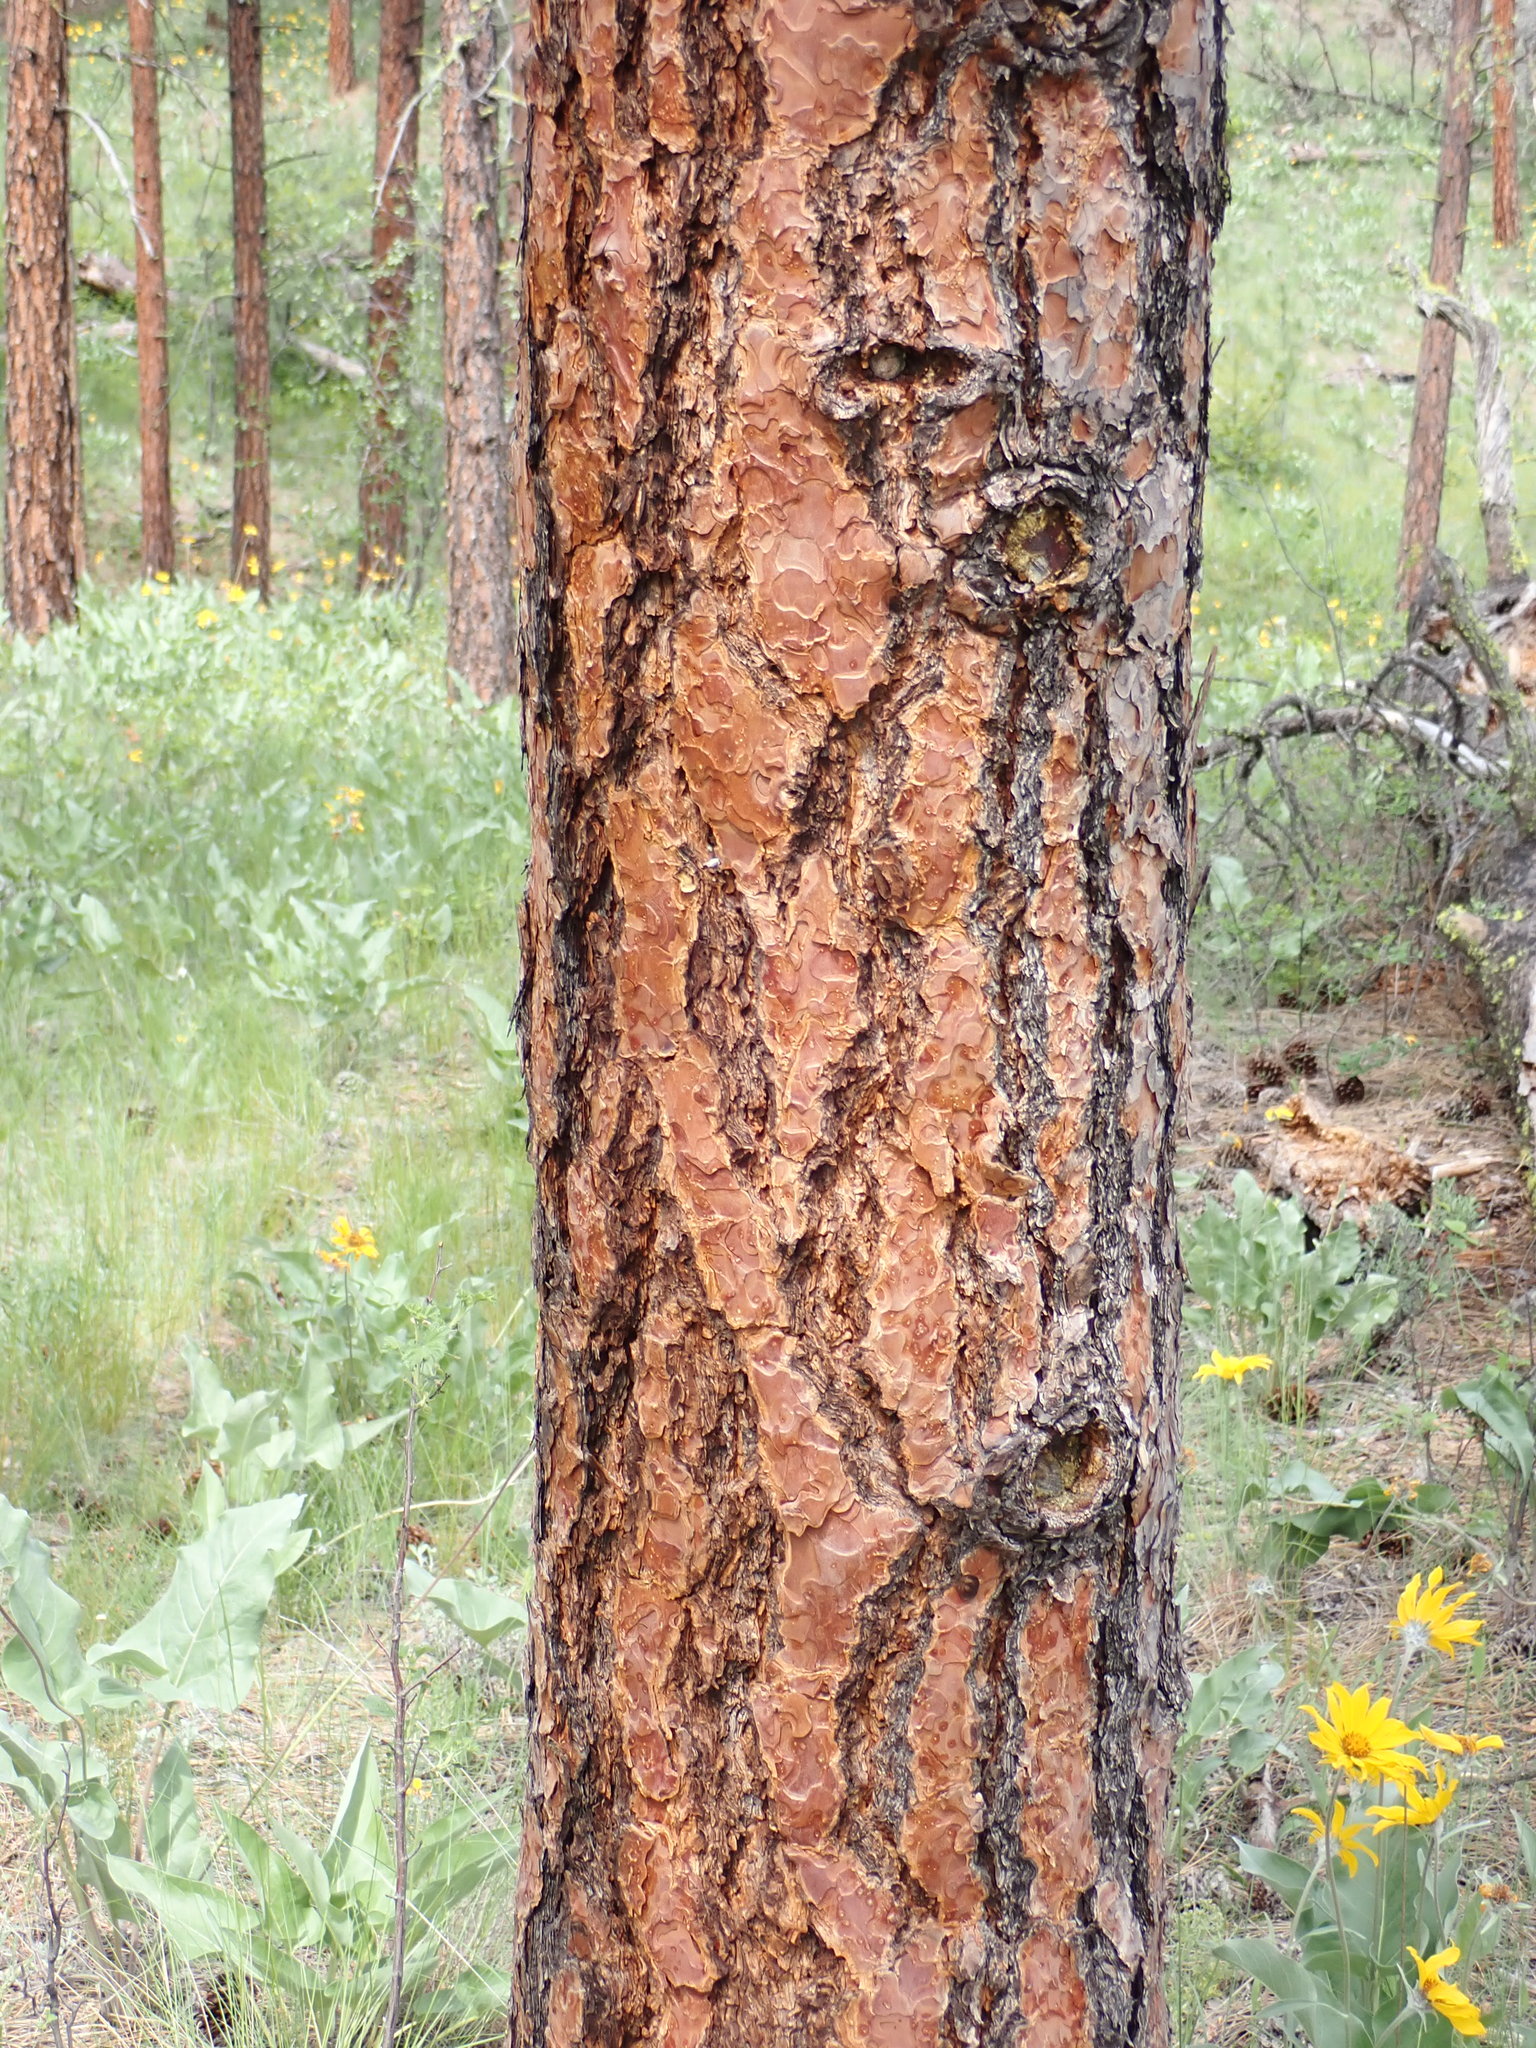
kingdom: Plantae
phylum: Tracheophyta
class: Pinopsida
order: Pinales
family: Pinaceae
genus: Pinus
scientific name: Pinus ponderosa
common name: Western yellow-pine
